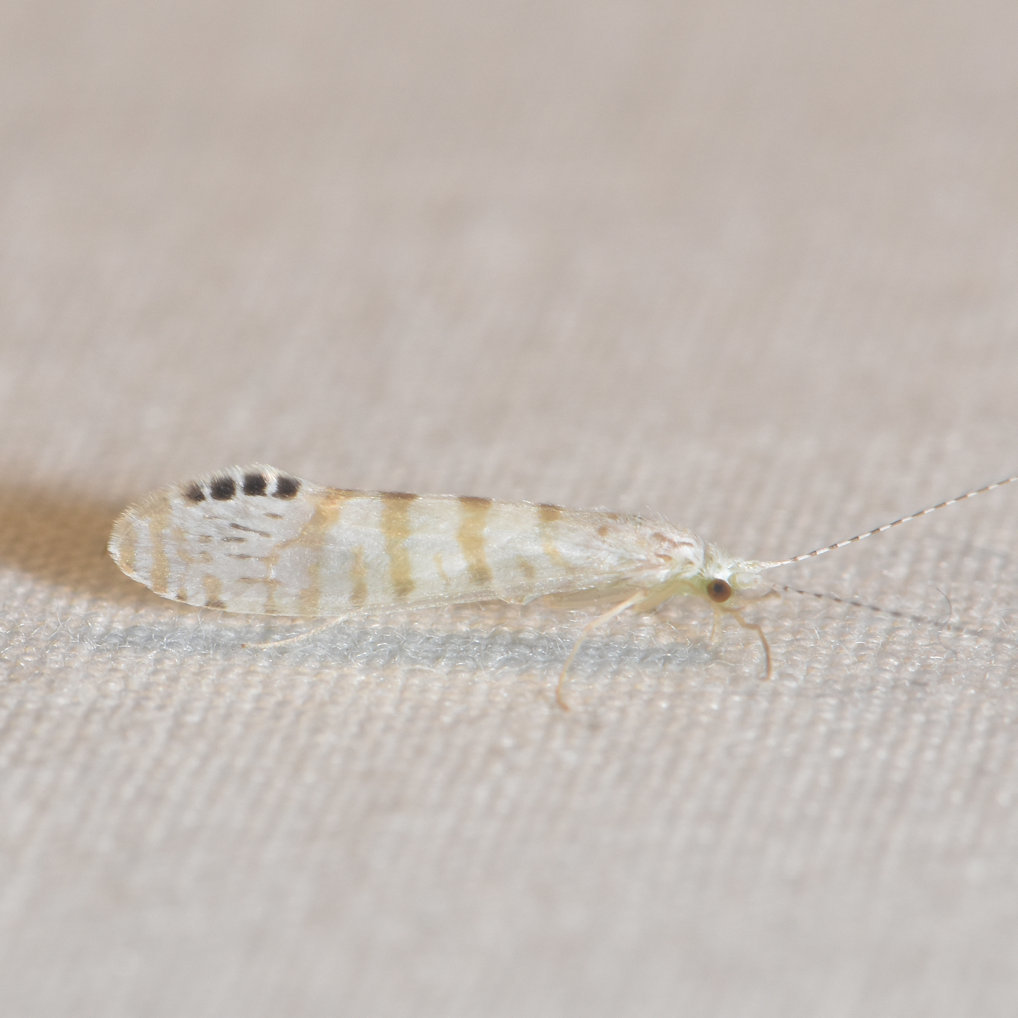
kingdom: Animalia
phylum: Arthropoda
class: Insecta
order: Trichoptera
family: Leptoceridae
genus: Nectopsyche
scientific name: Nectopsyche exquisita
